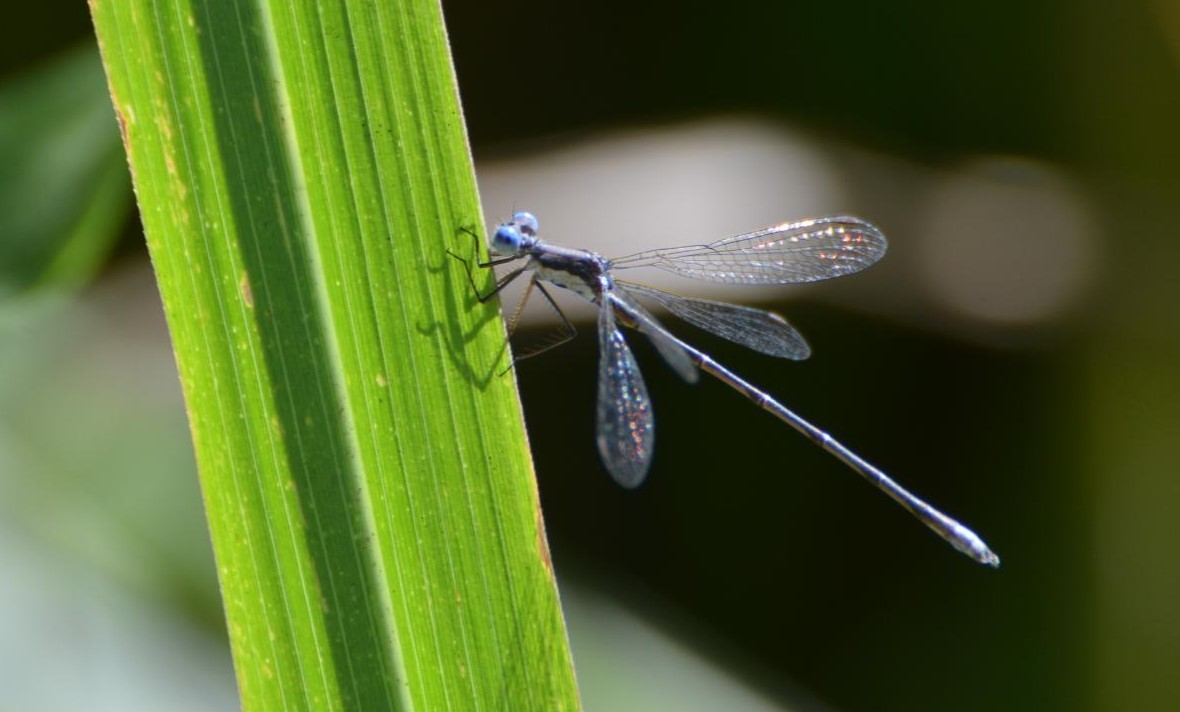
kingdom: Animalia
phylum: Arthropoda
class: Insecta
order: Odonata
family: Lestidae
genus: Lestes
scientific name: Lestes congener
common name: Spotted spreadwing
